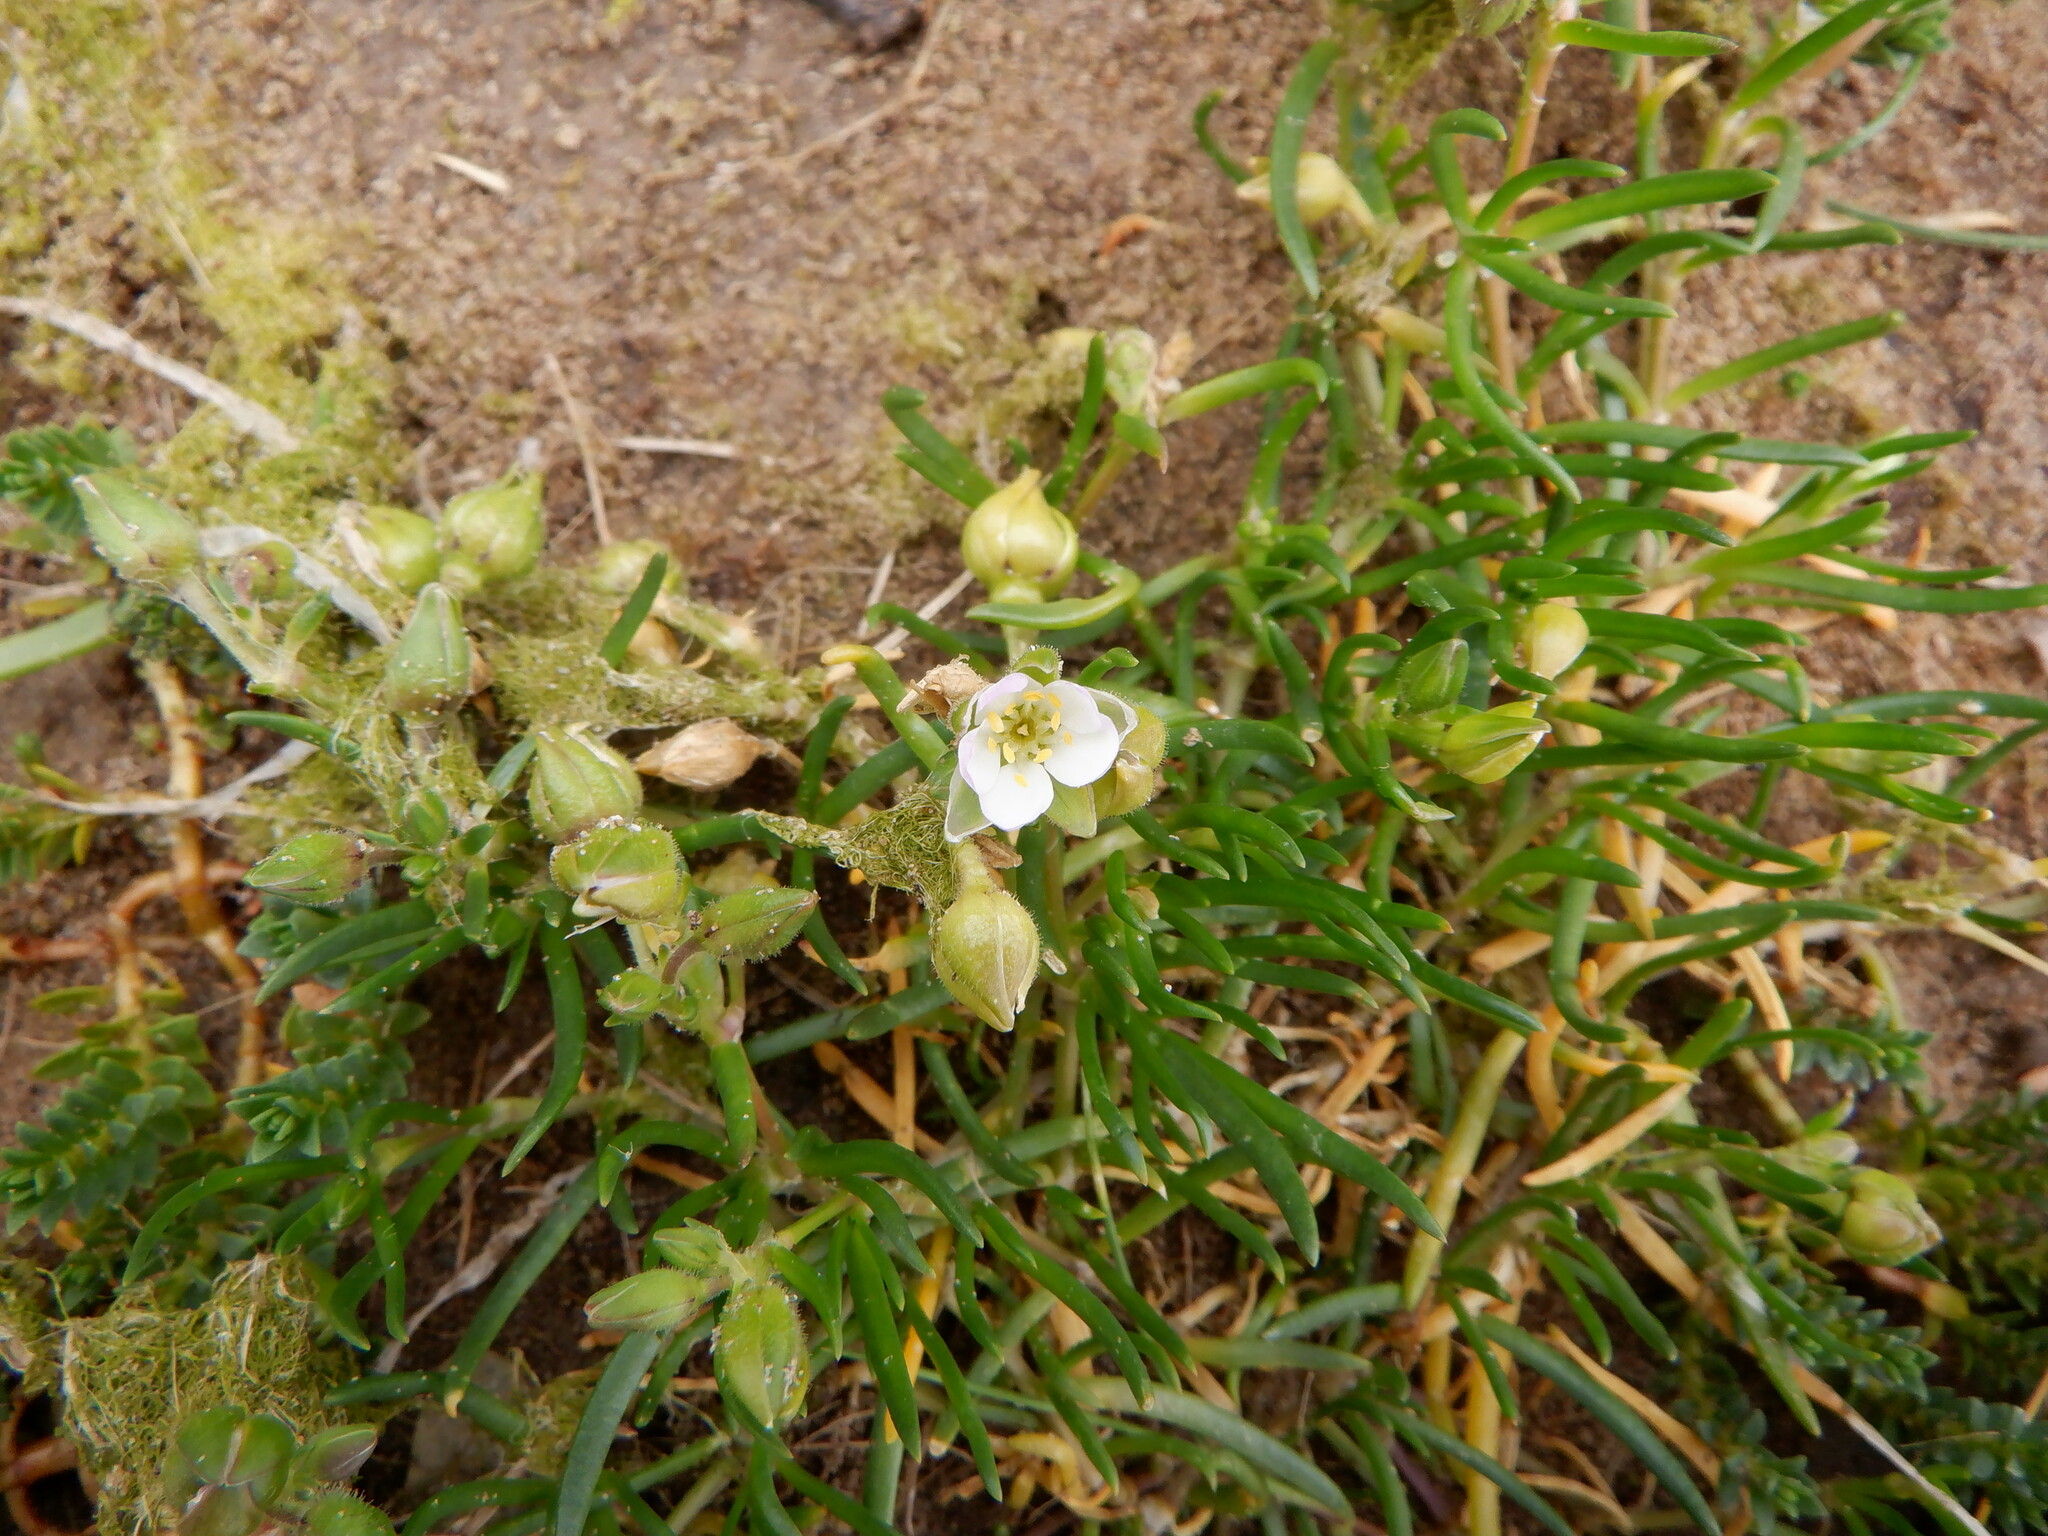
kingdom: Plantae
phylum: Tracheophyta
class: Magnoliopsida
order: Caryophyllales
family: Caryophyllaceae
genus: Spergularia
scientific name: Spergularia media
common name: Greater sea-spurrey
